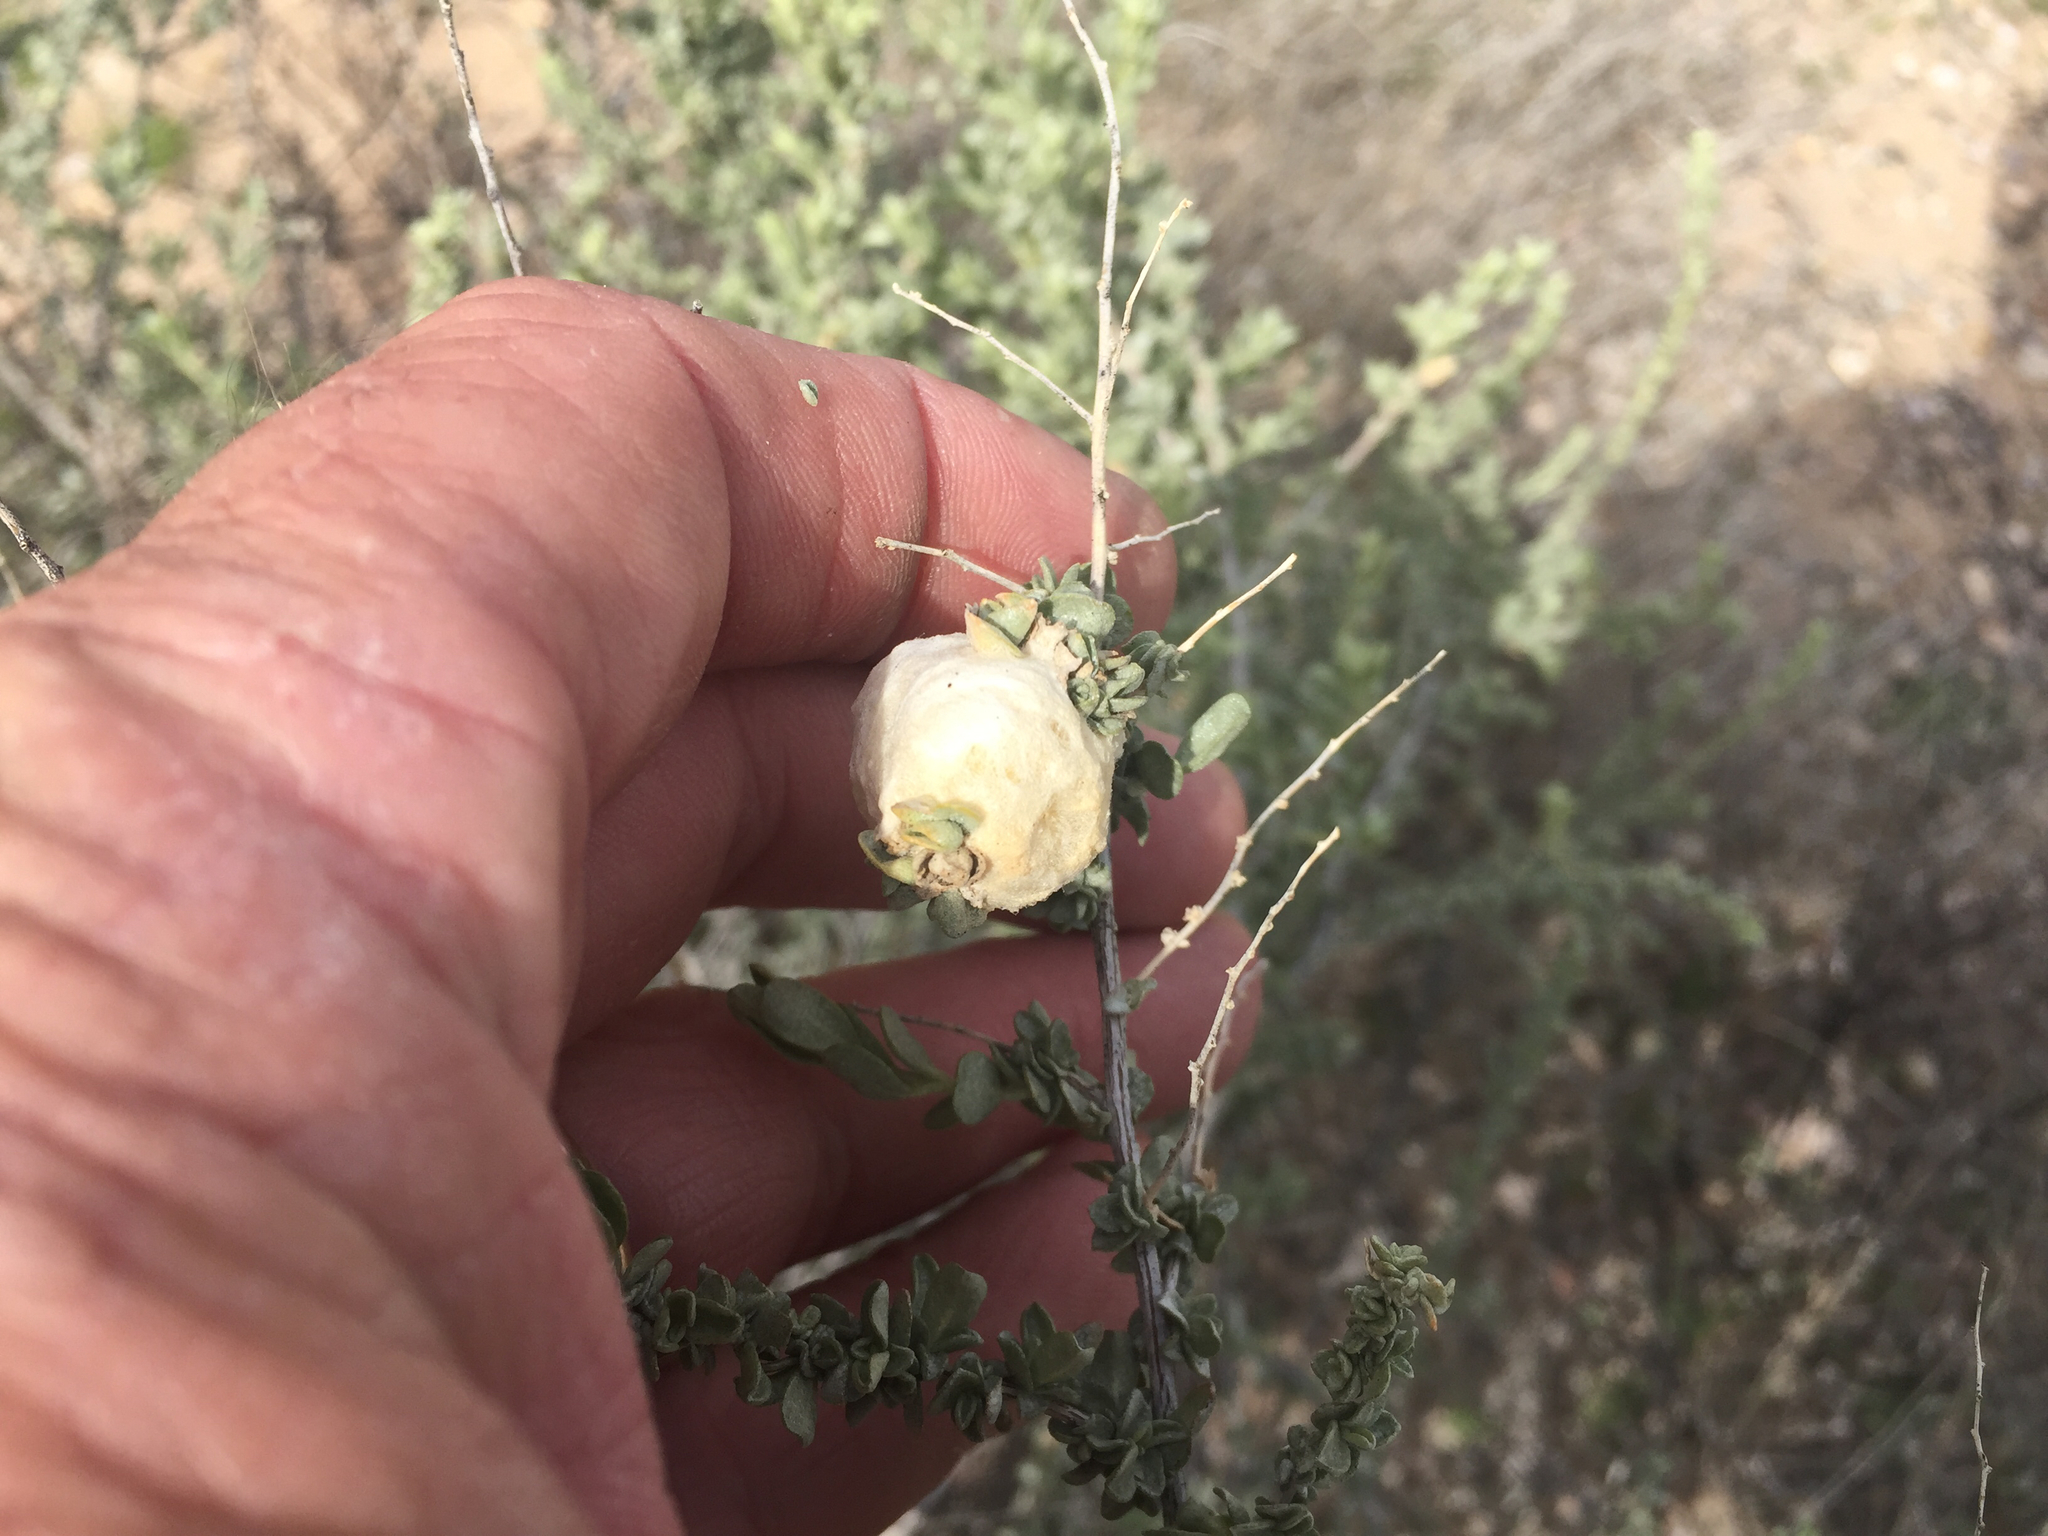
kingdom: Plantae
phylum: Tracheophyta
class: Magnoliopsida
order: Caryophyllales
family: Amaranthaceae
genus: Atriplex
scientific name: Atriplex canescens
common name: Four-wing saltbush
